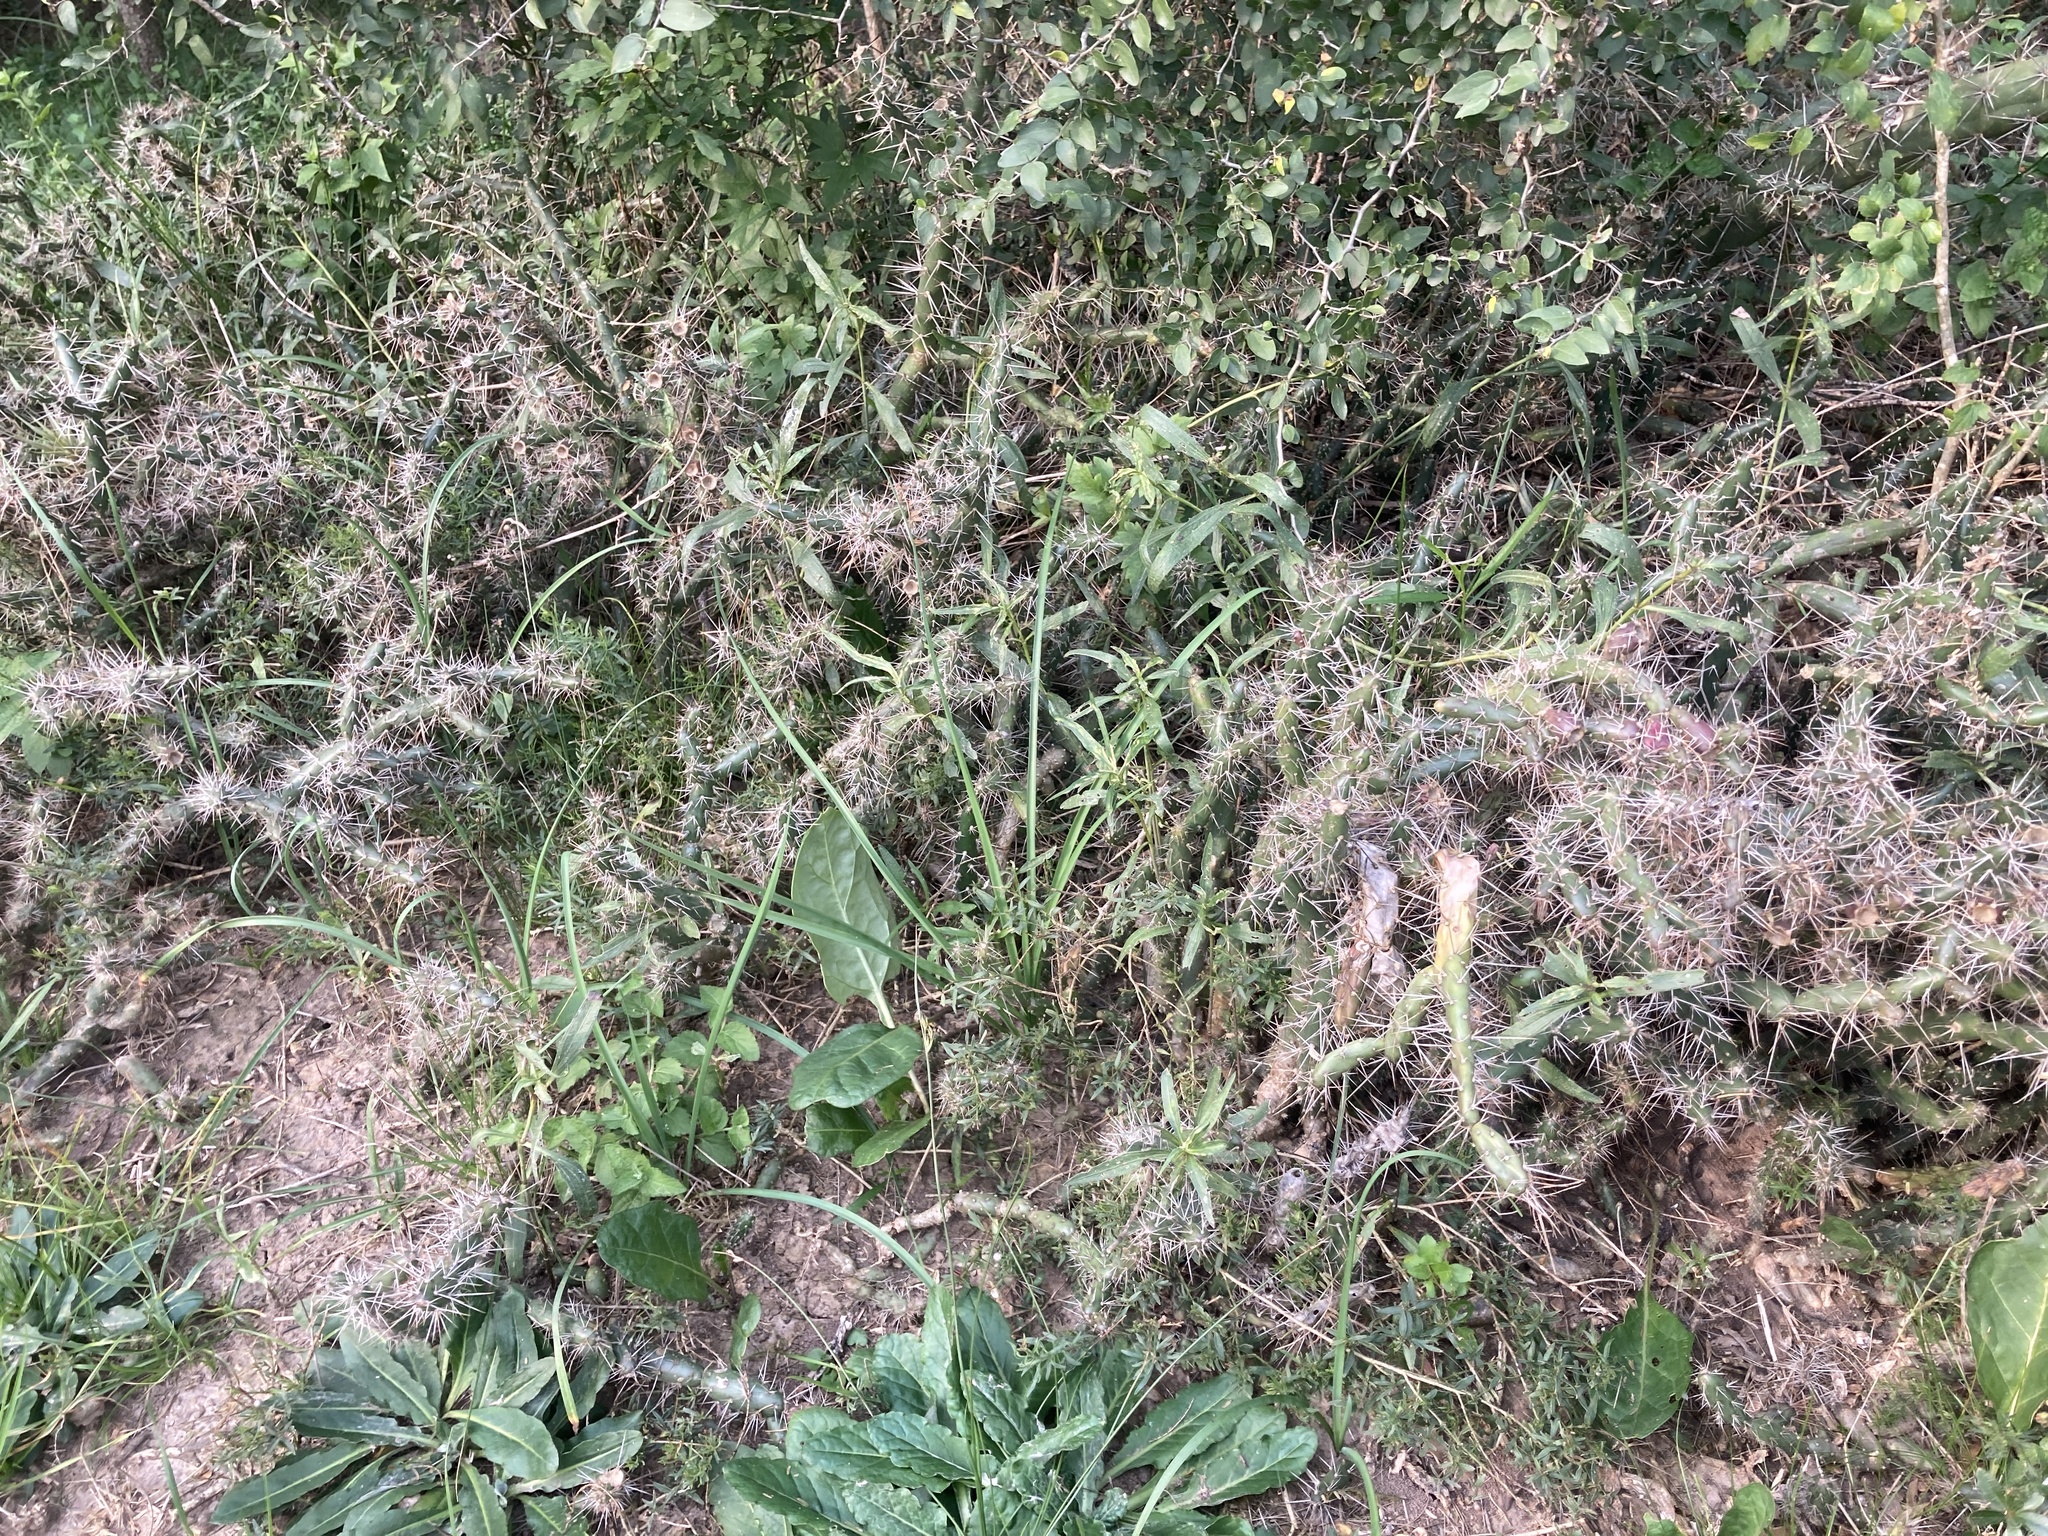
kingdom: Plantae
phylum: Tracheophyta
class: Magnoliopsida
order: Caryophyllales
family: Cactaceae
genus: Opuntia
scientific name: Opuntia aurantiaca
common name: Jointed pricklypear
